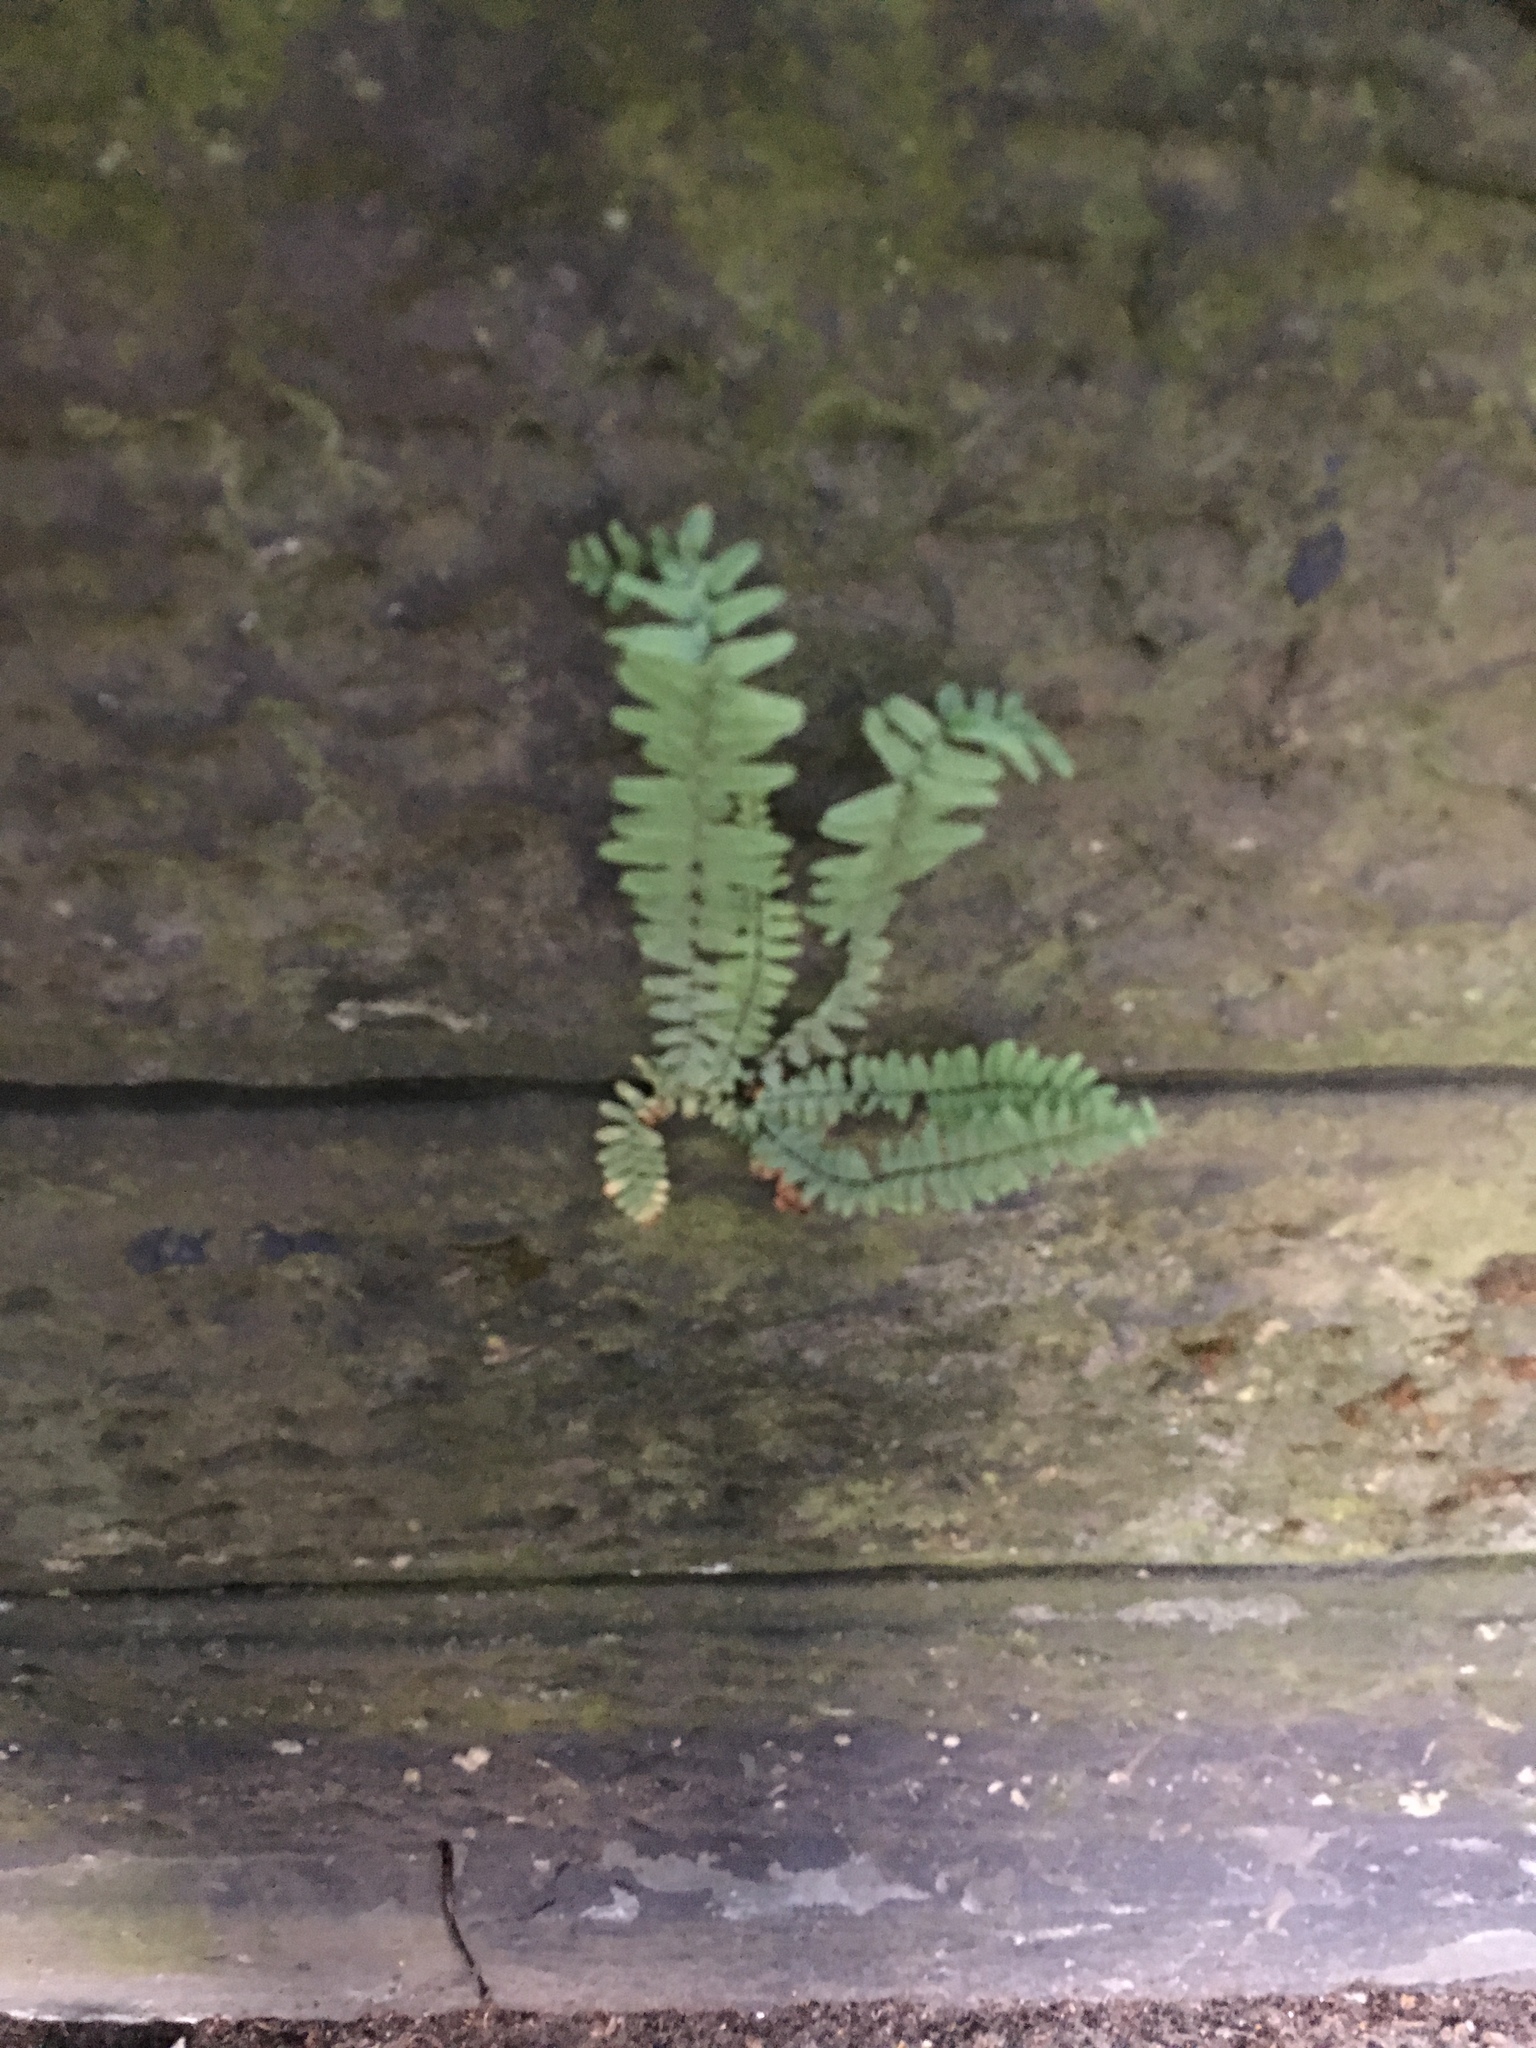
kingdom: Plantae
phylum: Tracheophyta
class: Polypodiopsida
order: Polypodiales
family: Aspleniaceae
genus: Asplenium
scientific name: Asplenium platyneuron
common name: Ebony spleenwort
